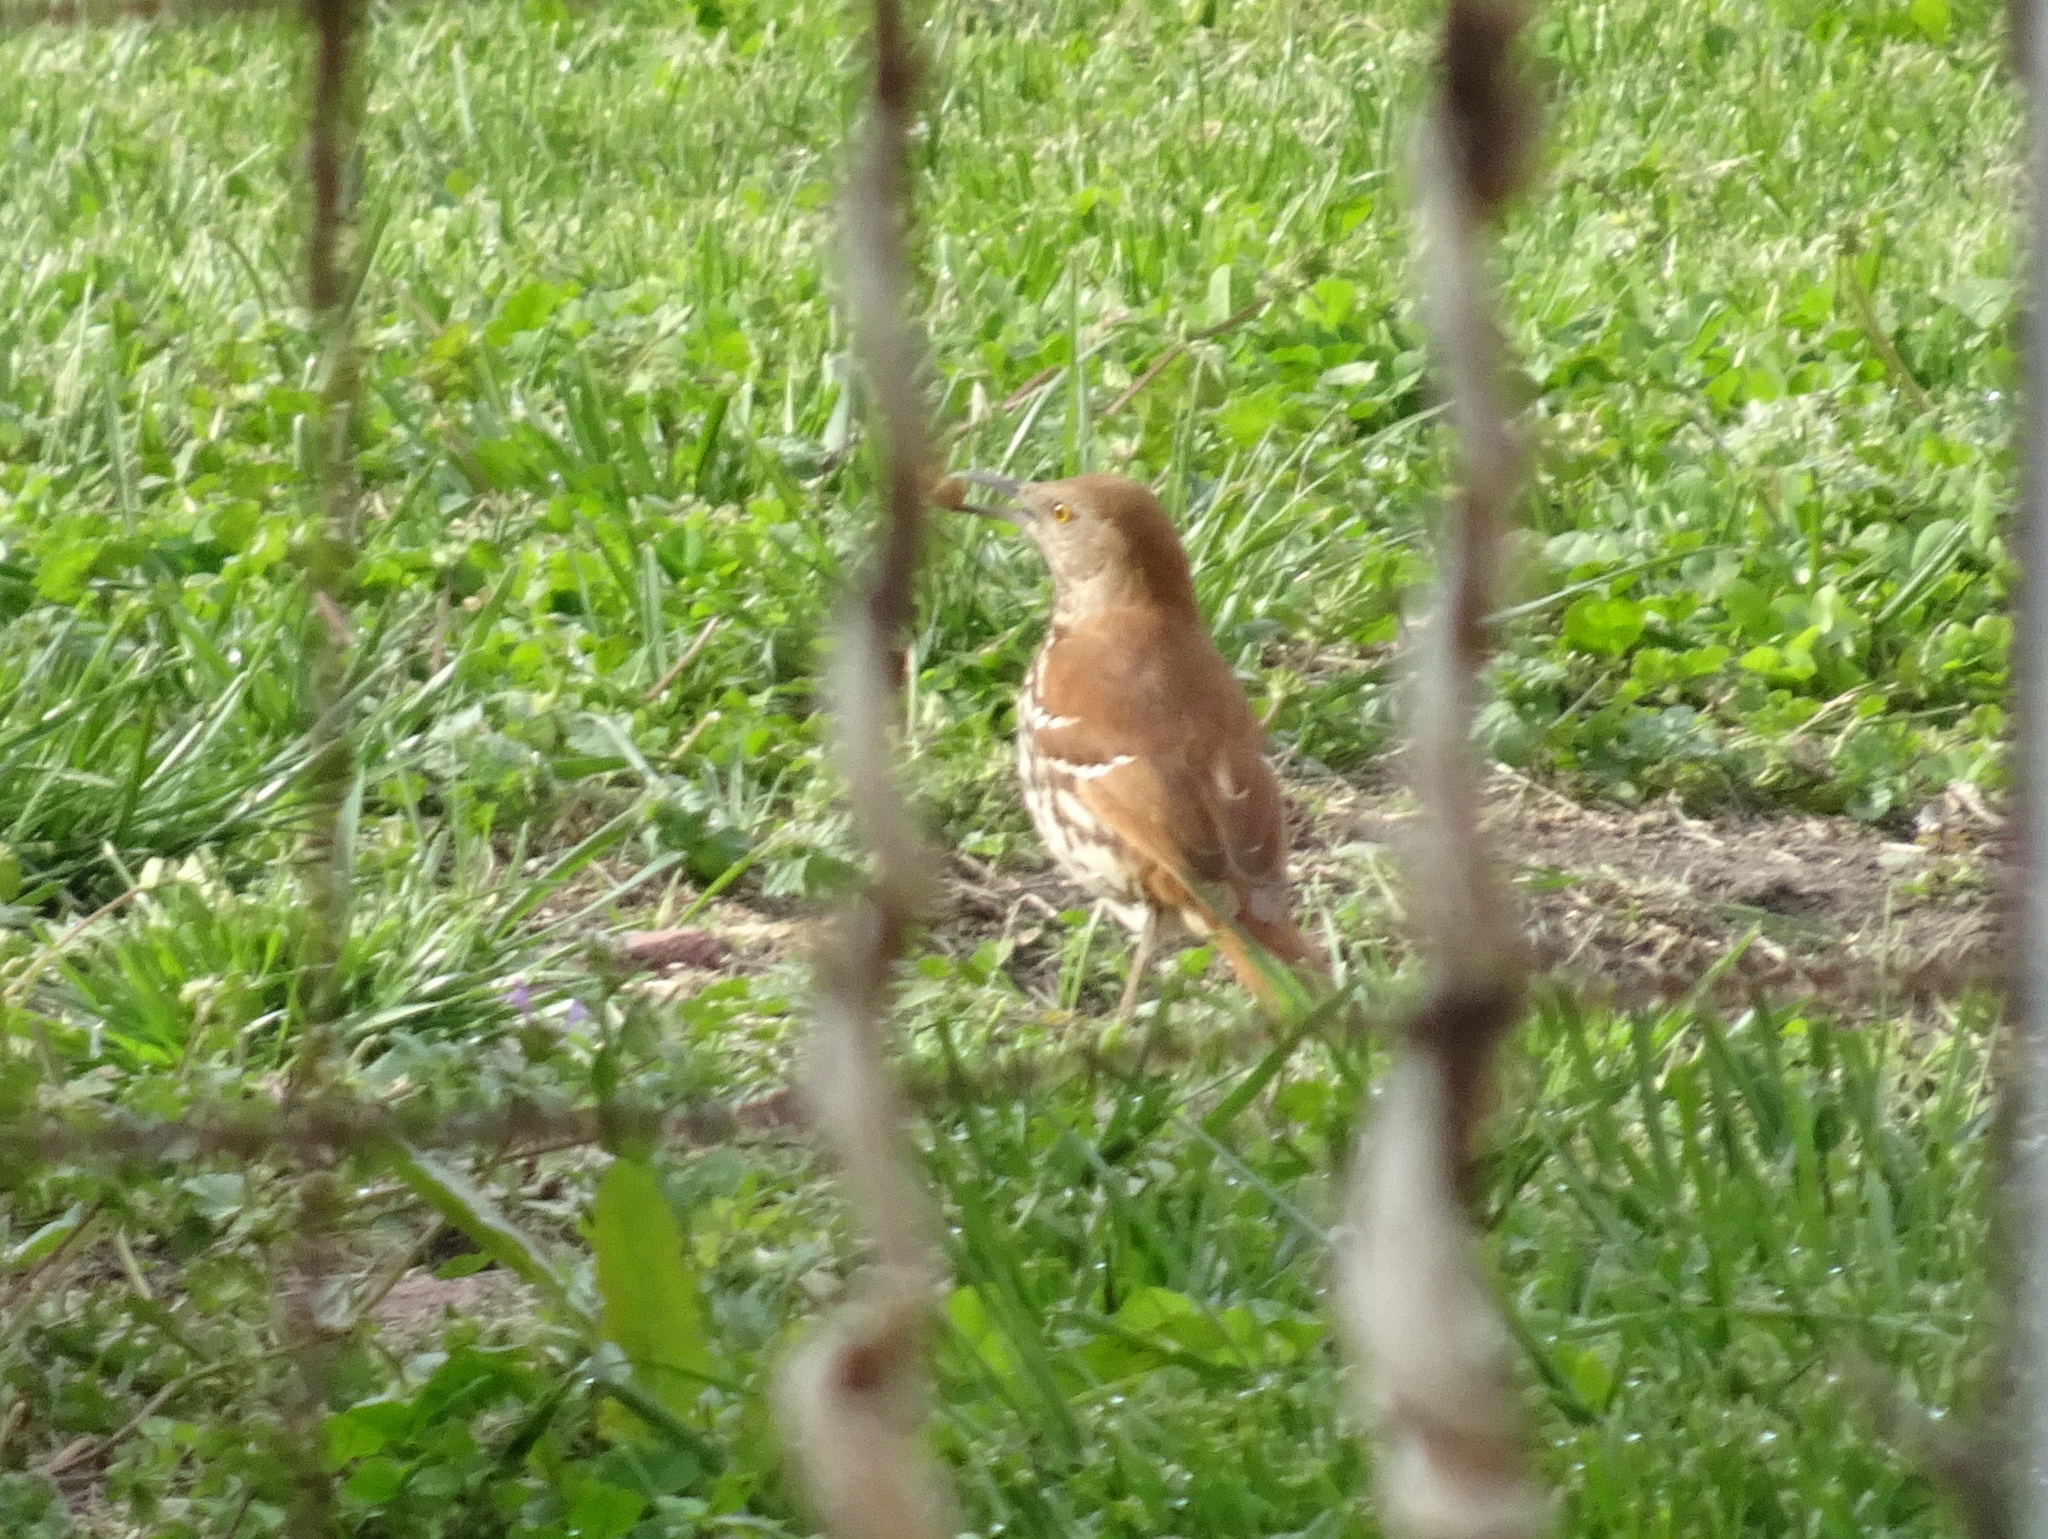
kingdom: Animalia
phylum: Chordata
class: Aves
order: Passeriformes
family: Mimidae
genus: Toxostoma
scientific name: Toxostoma rufum
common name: Brown thrasher
